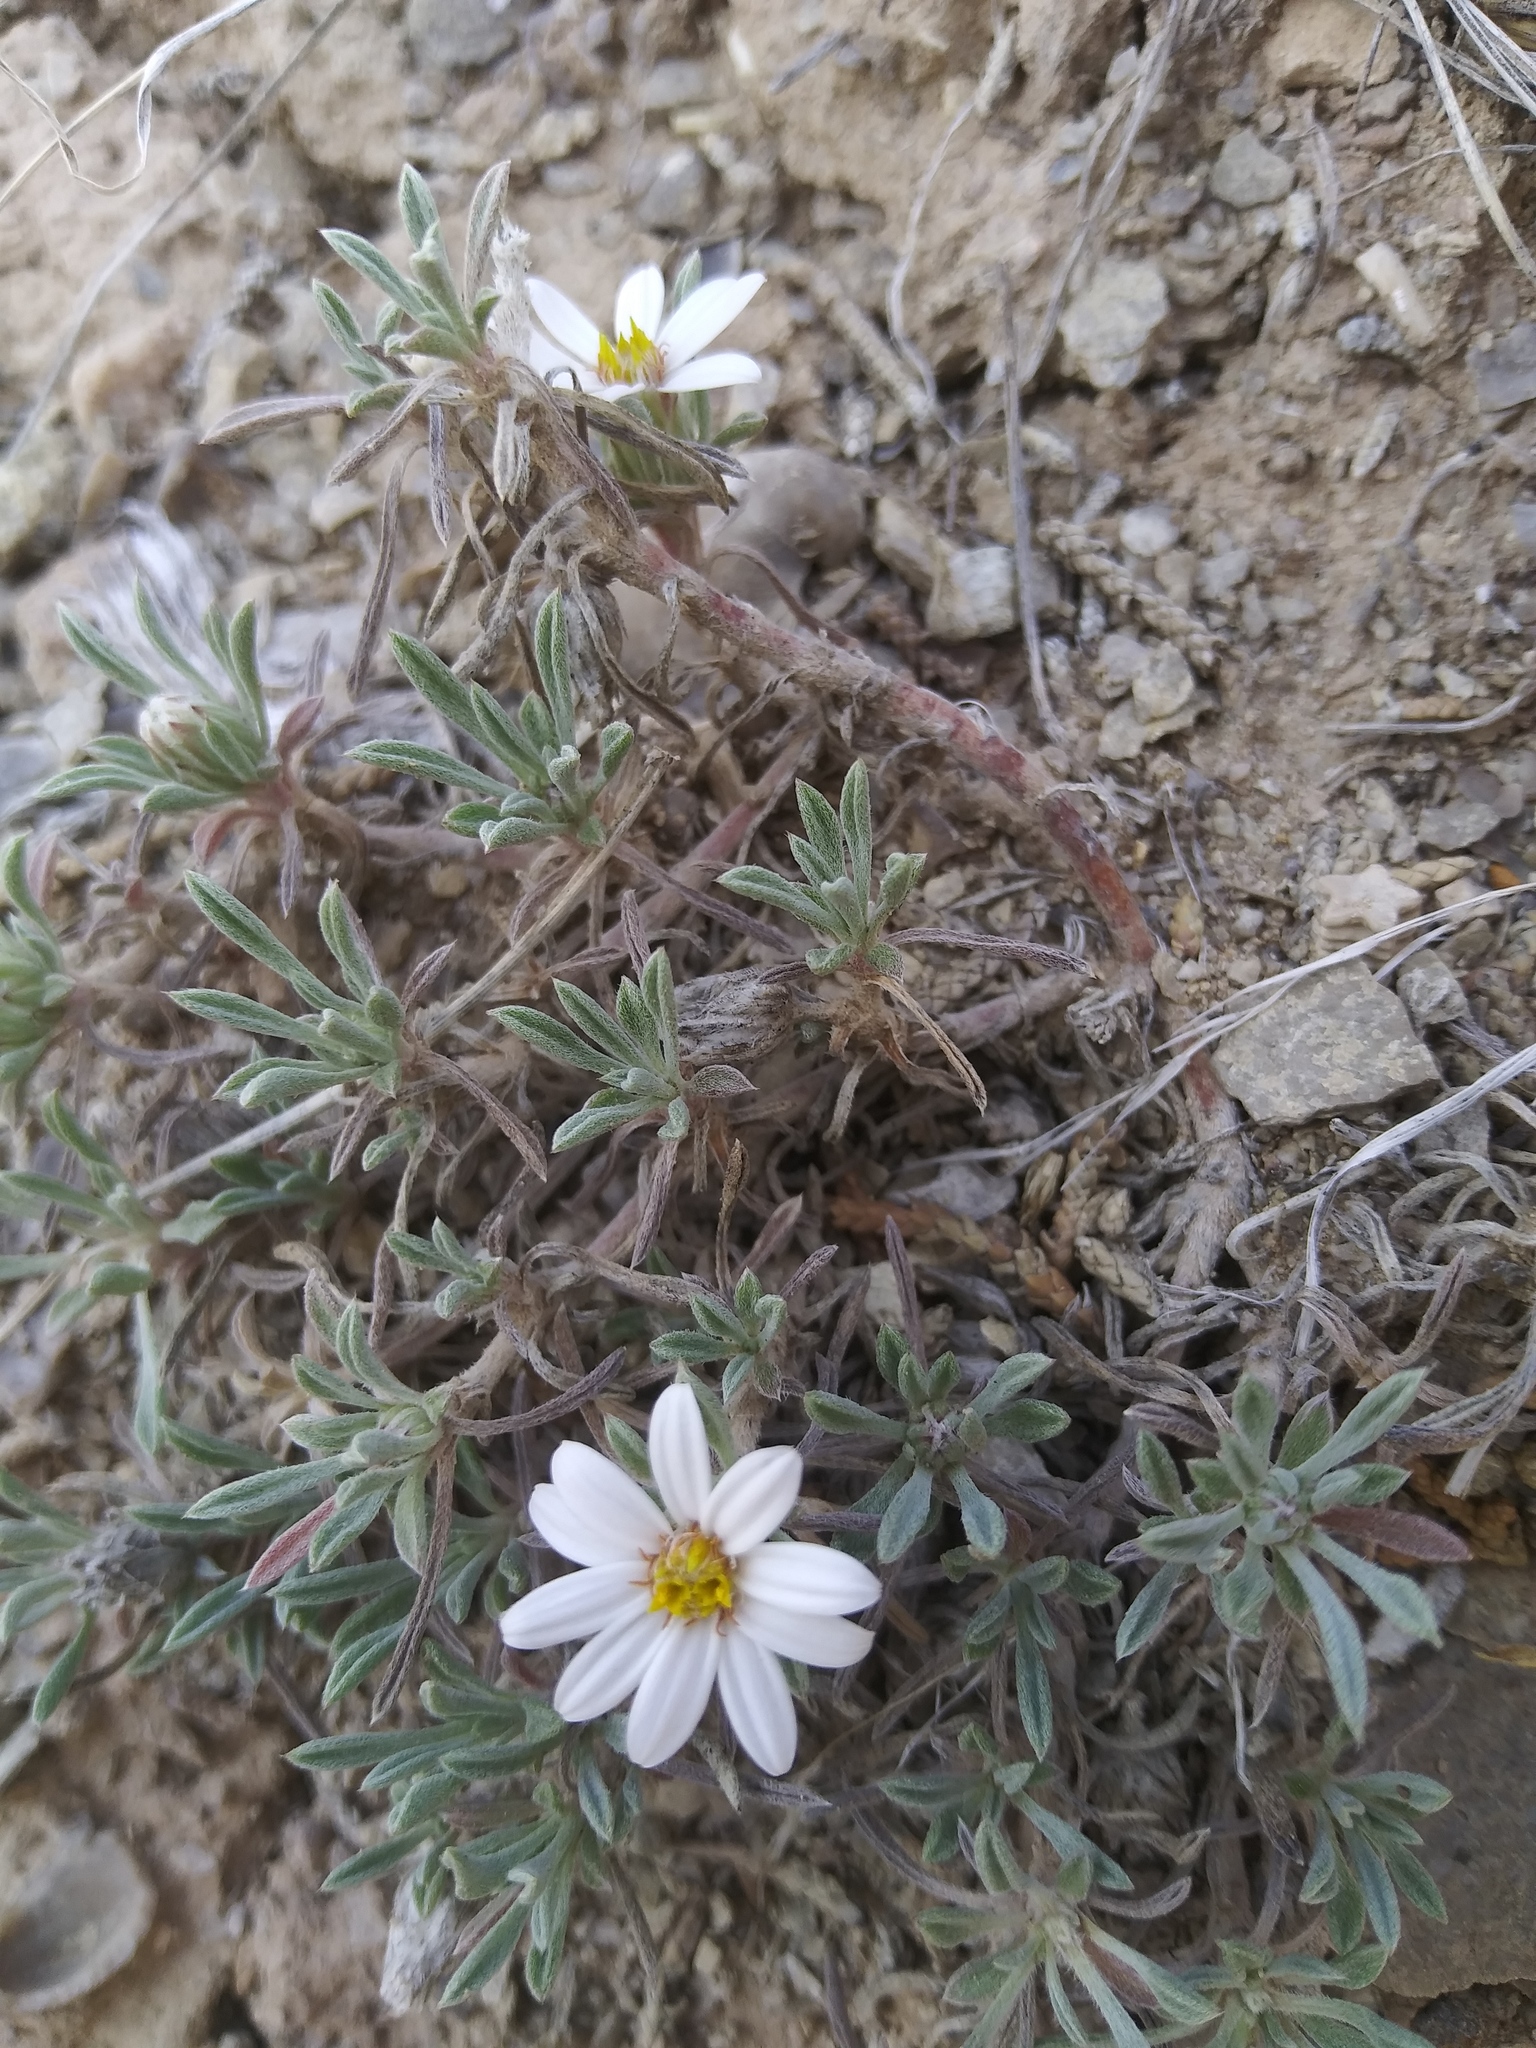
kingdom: Plantae
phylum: Tracheophyta
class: Magnoliopsida
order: Asterales
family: Asteraceae
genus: Townsendia
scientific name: Townsendia incana
